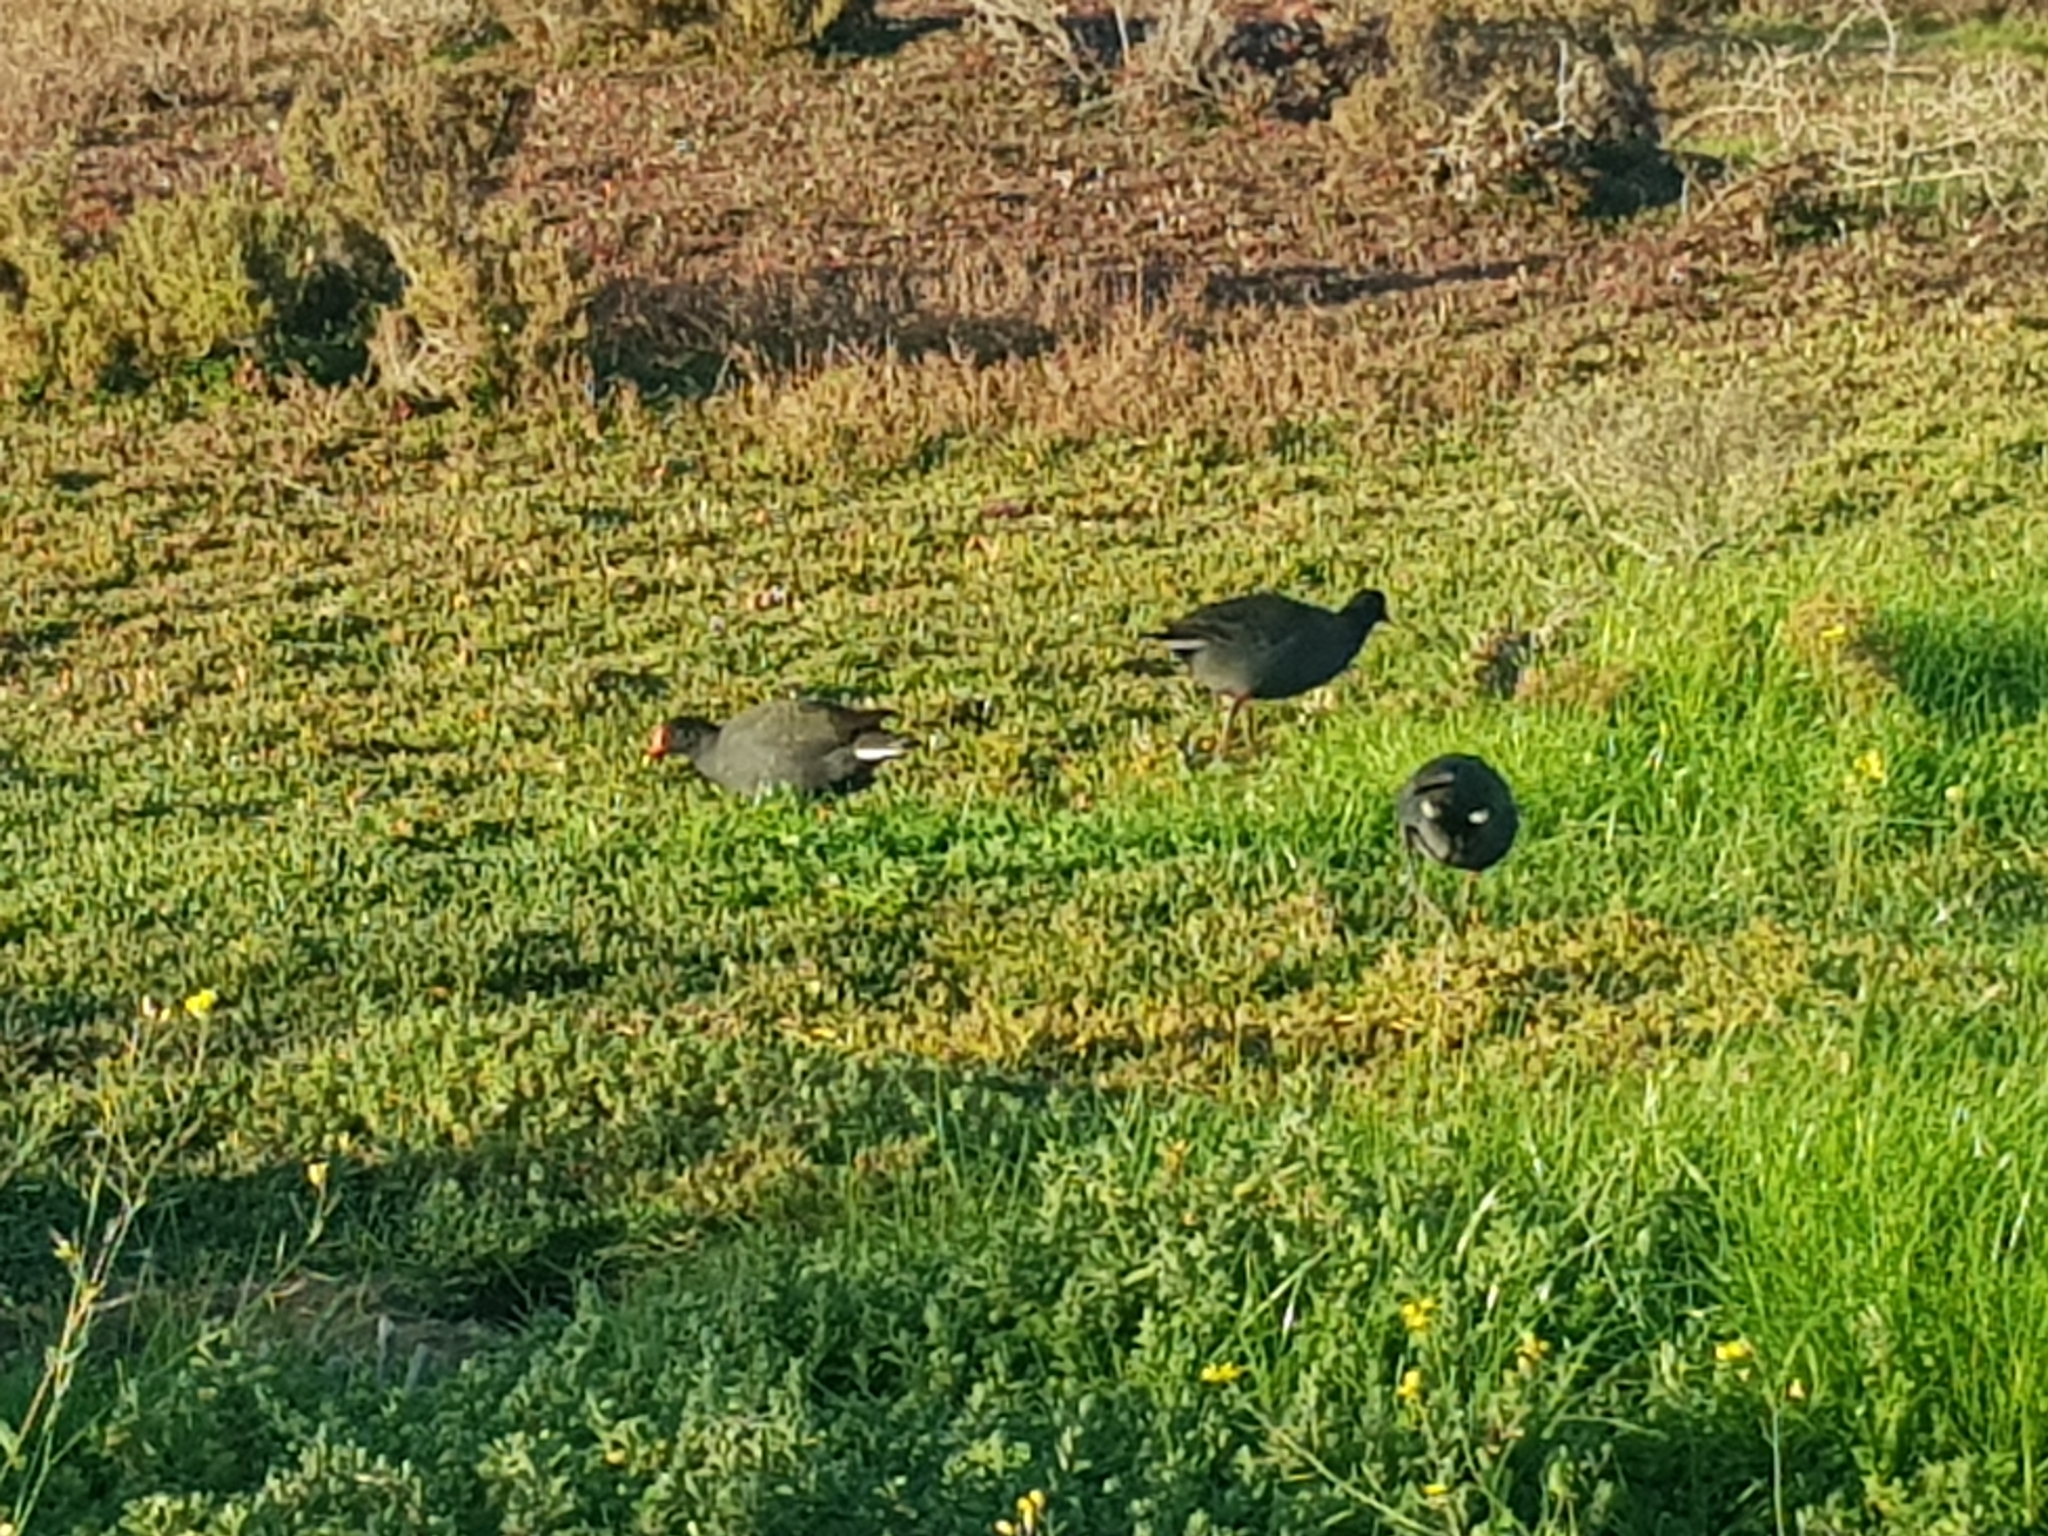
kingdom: Animalia
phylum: Chordata
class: Aves
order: Gruiformes
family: Rallidae
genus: Gallinula
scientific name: Gallinula tenebrosa
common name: Dusky moorhen
